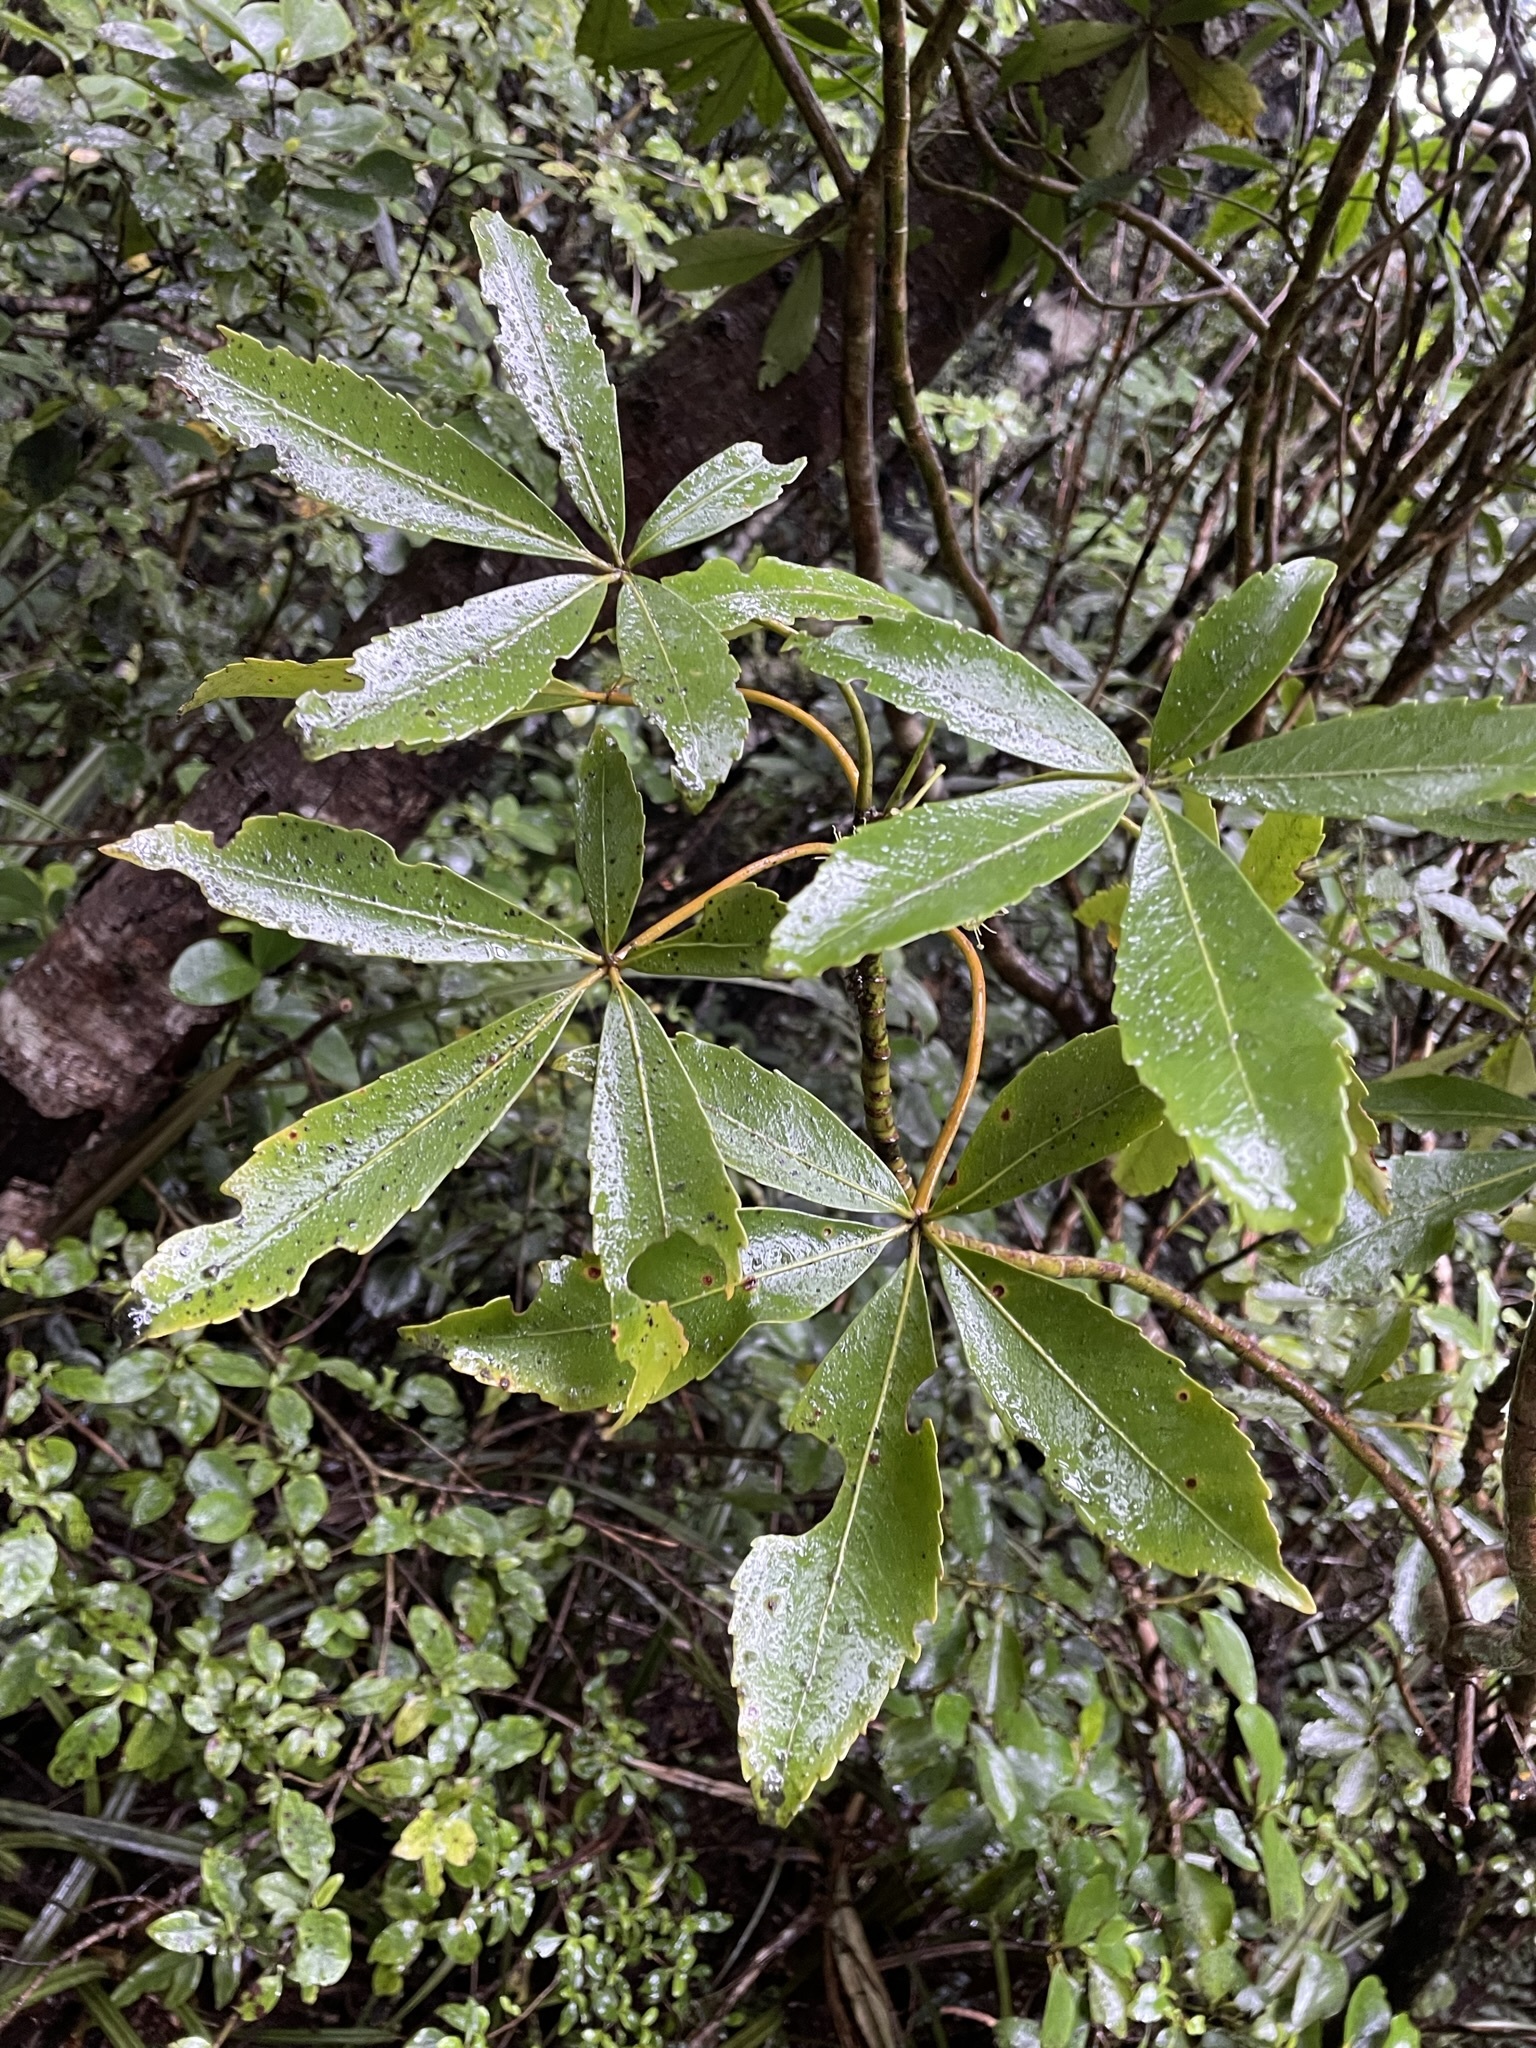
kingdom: Plantae
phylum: Tracheophyta
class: Magnoliopsida
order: Apiales
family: Araliaceae
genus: Neopanax
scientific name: Neopanax colensoi
